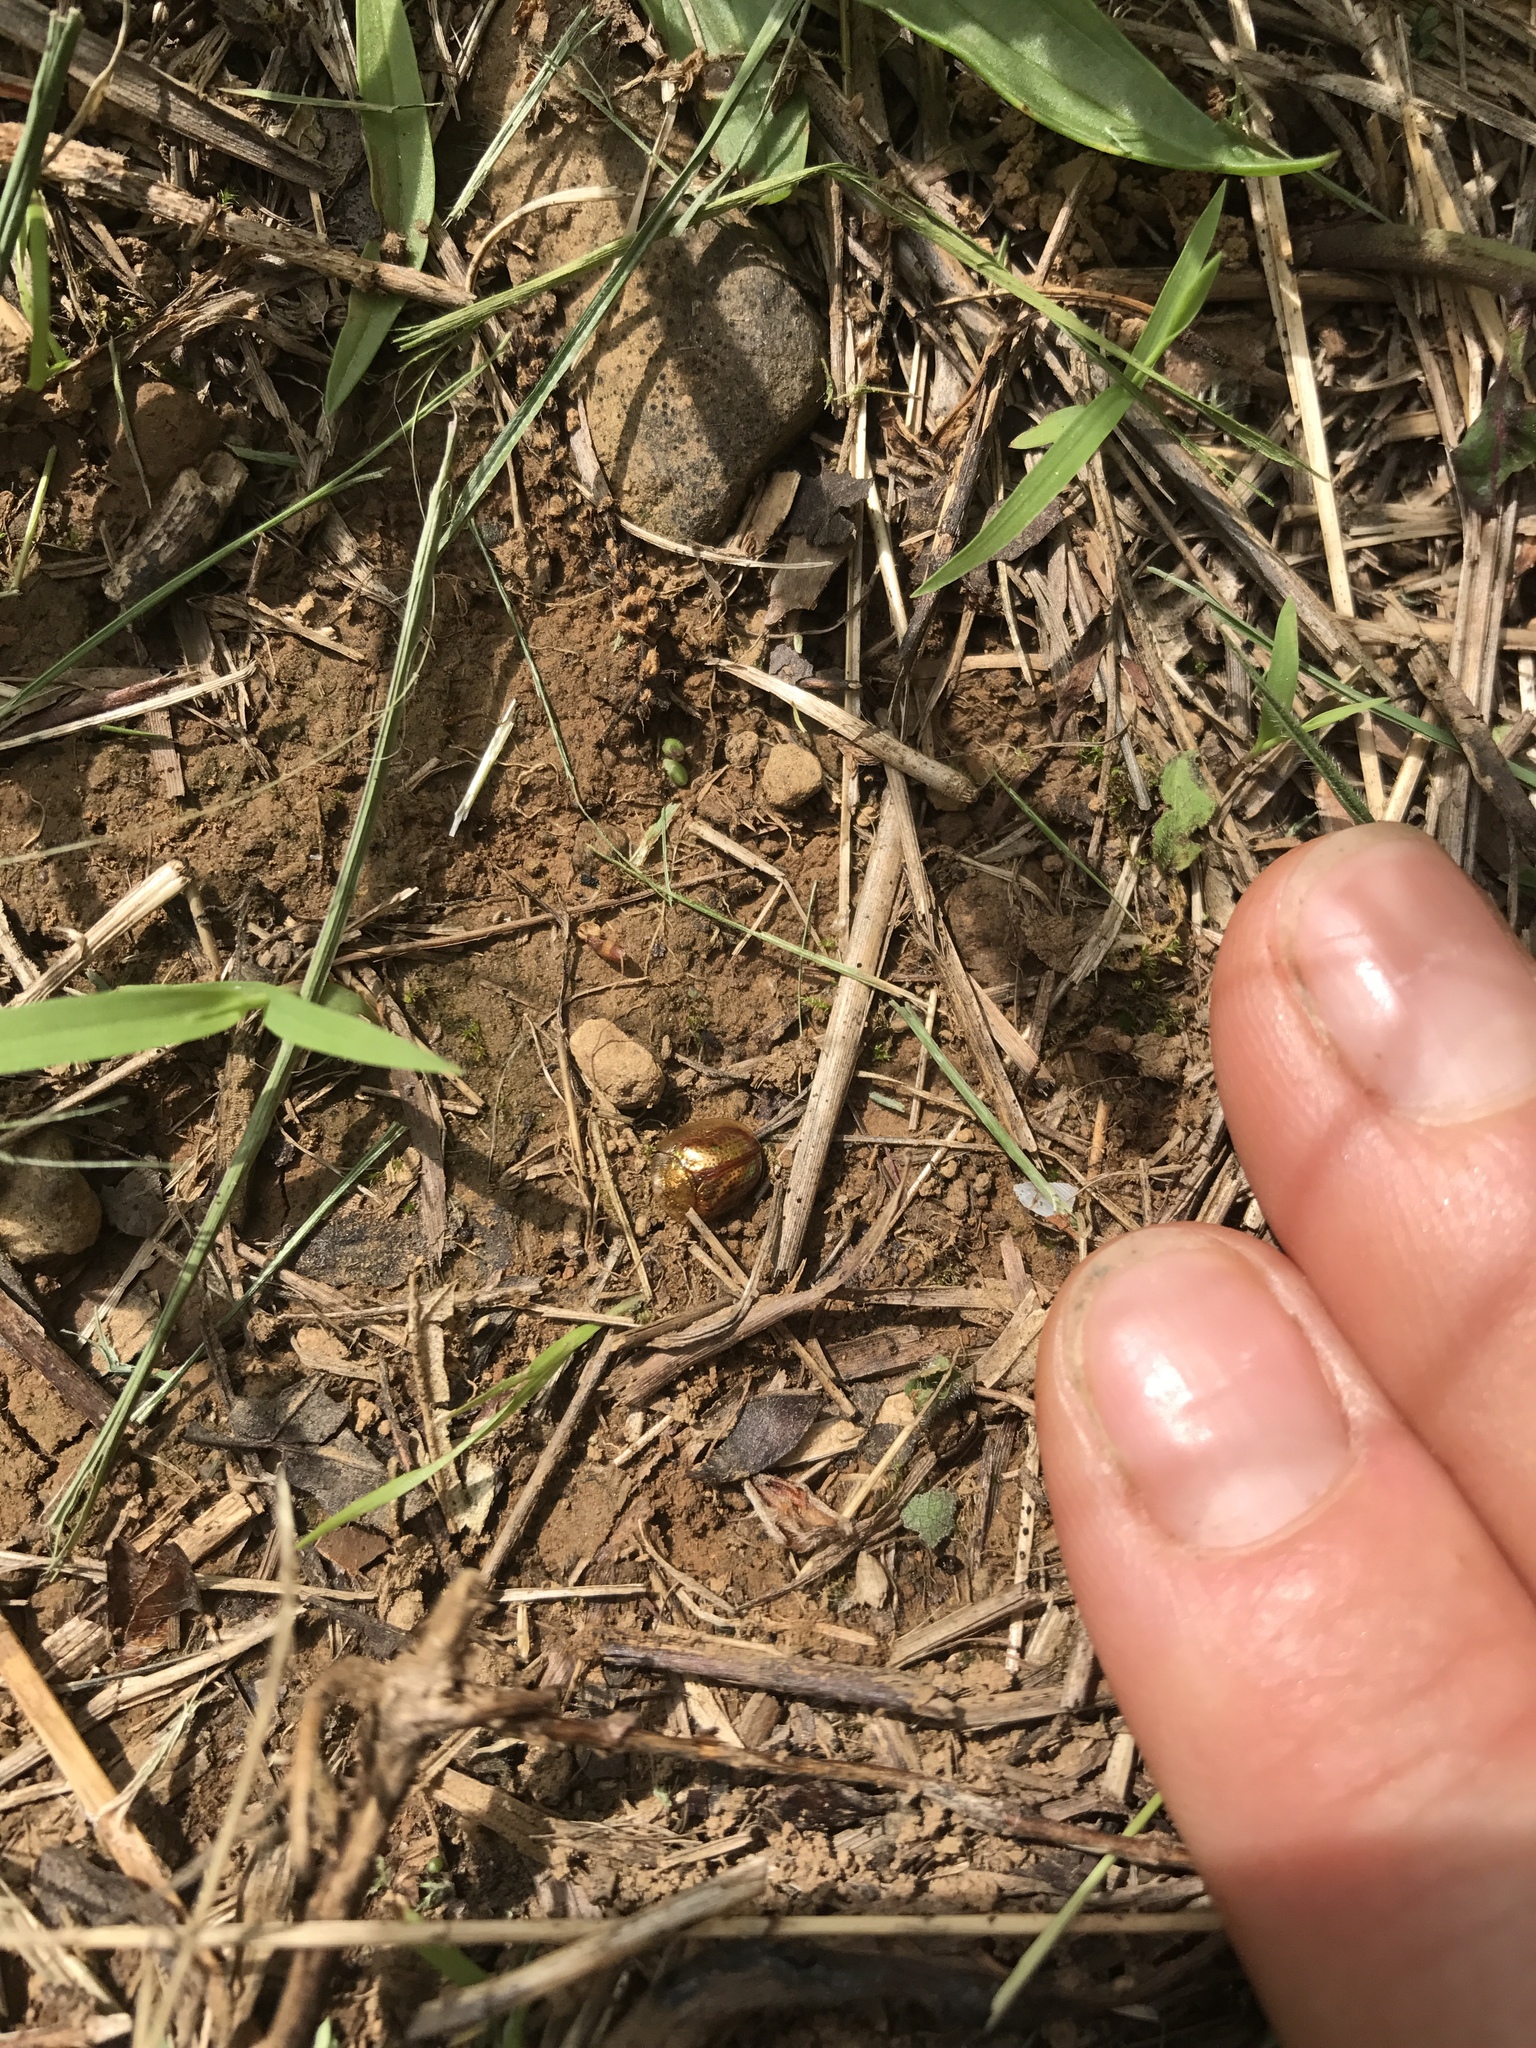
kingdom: Animalia
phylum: Arthropoda
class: Insecta
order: Coleoptera
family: Chrysomelidae
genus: Charidotella
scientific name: Charidotella sexpunctata
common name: Golden tortoise beetle
